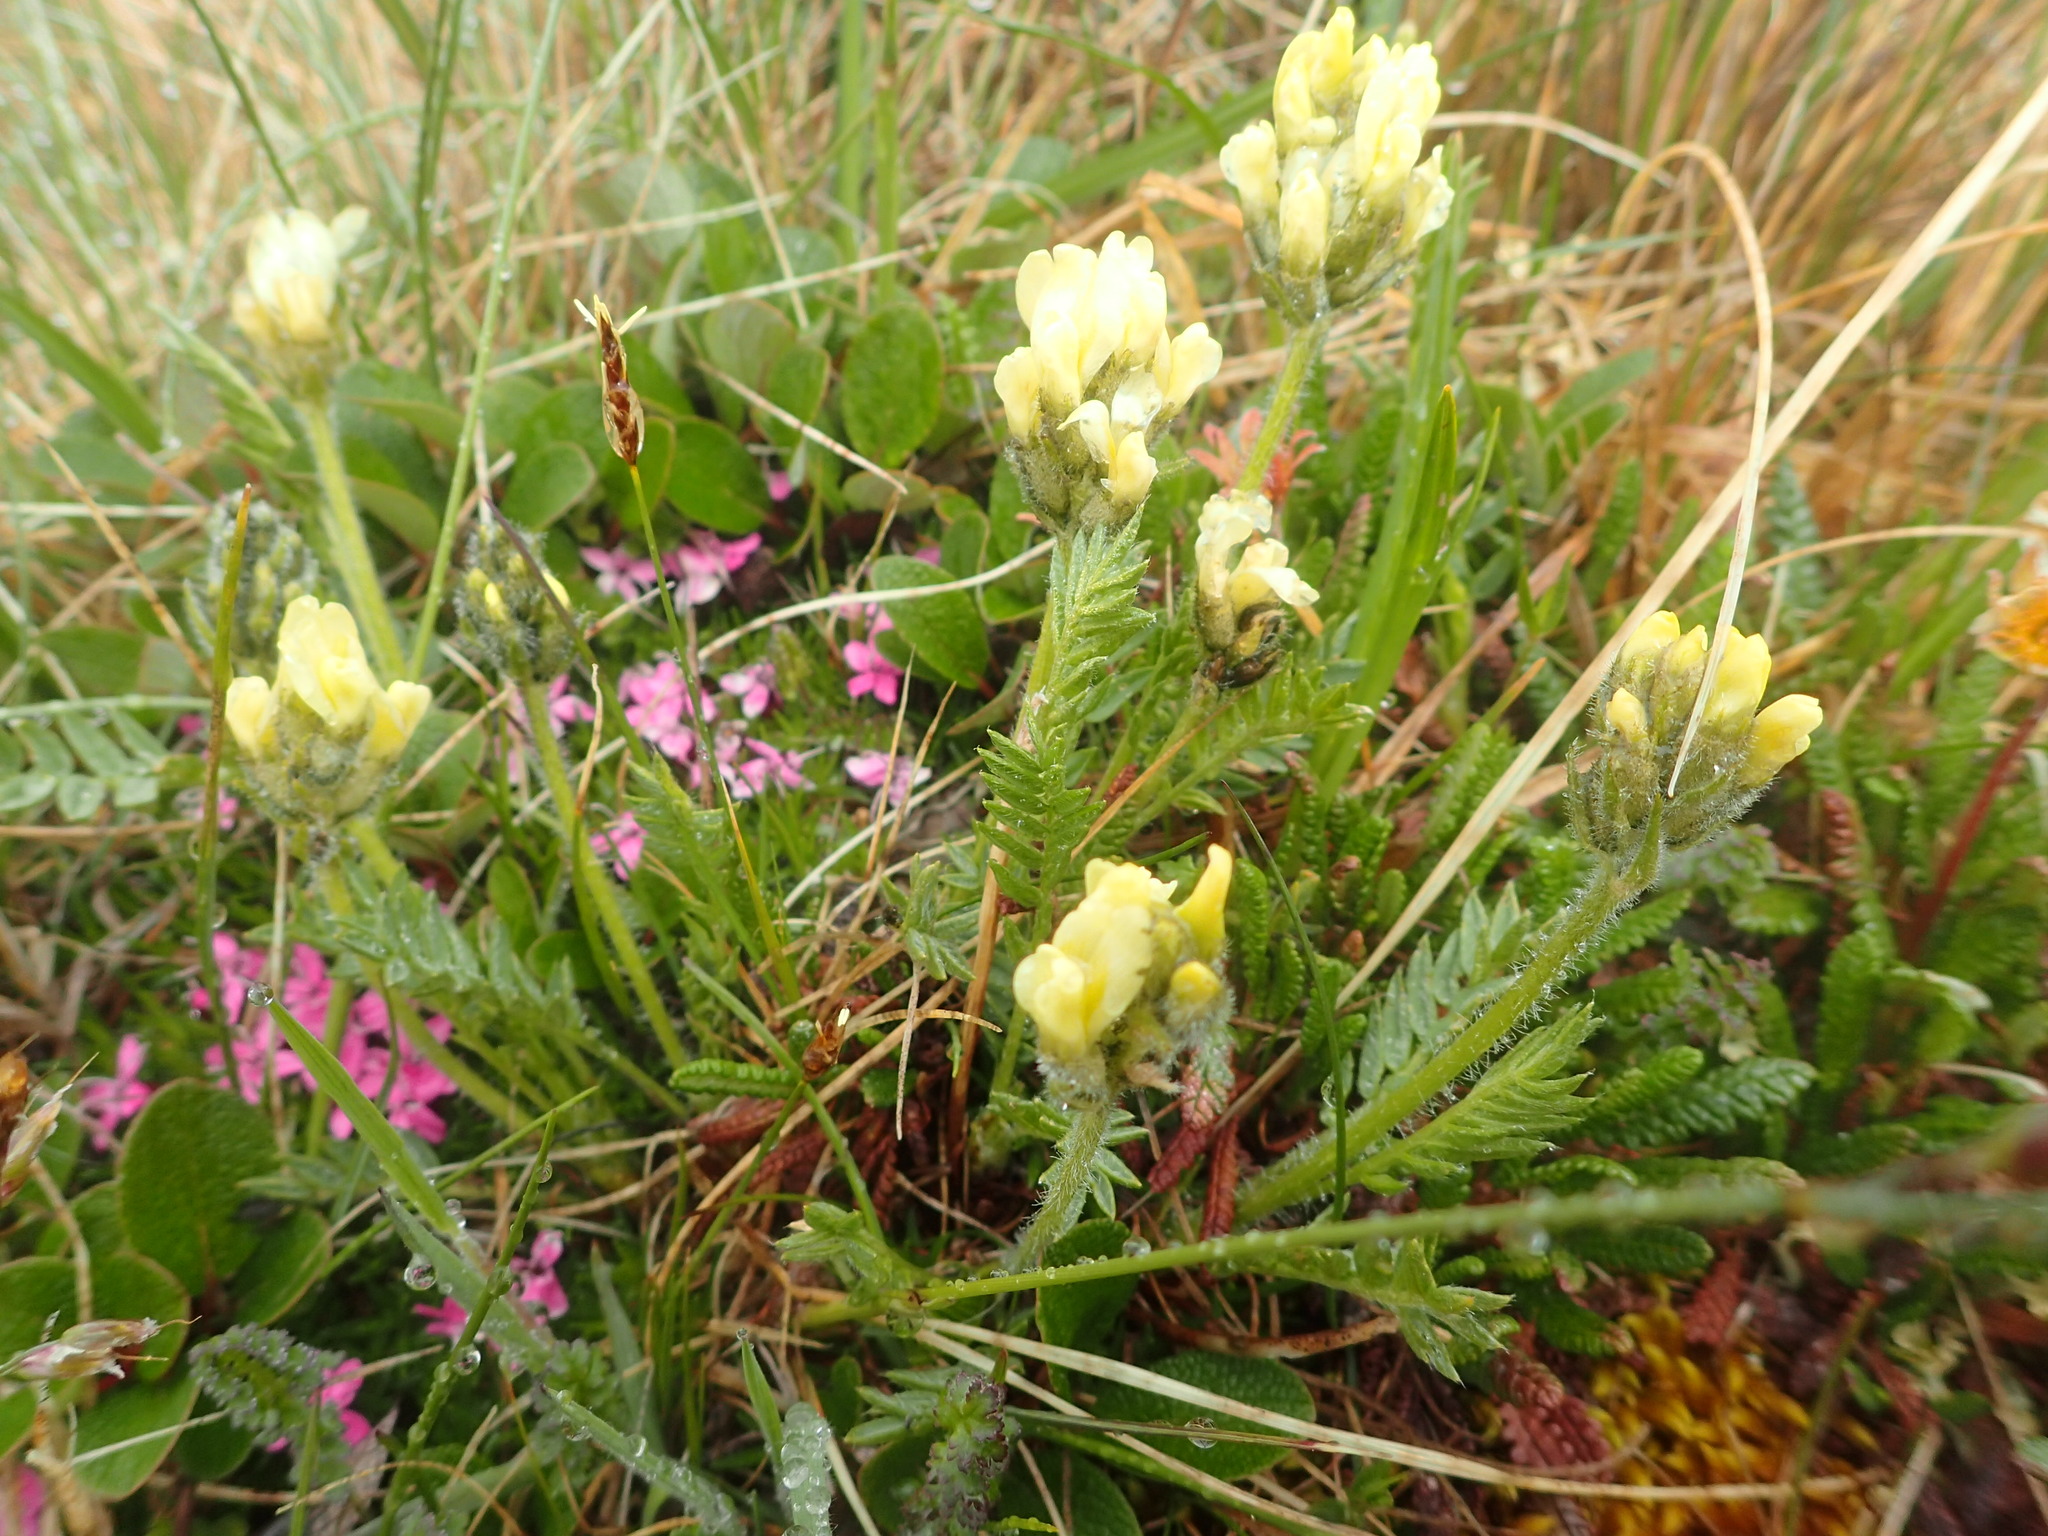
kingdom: Plantae
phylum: Tracheophyta
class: Magnoliopsida
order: Fabales
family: Fabaceae
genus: Oxytropis
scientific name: Oxytropis maydelliana
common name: Maydell's locoweed
